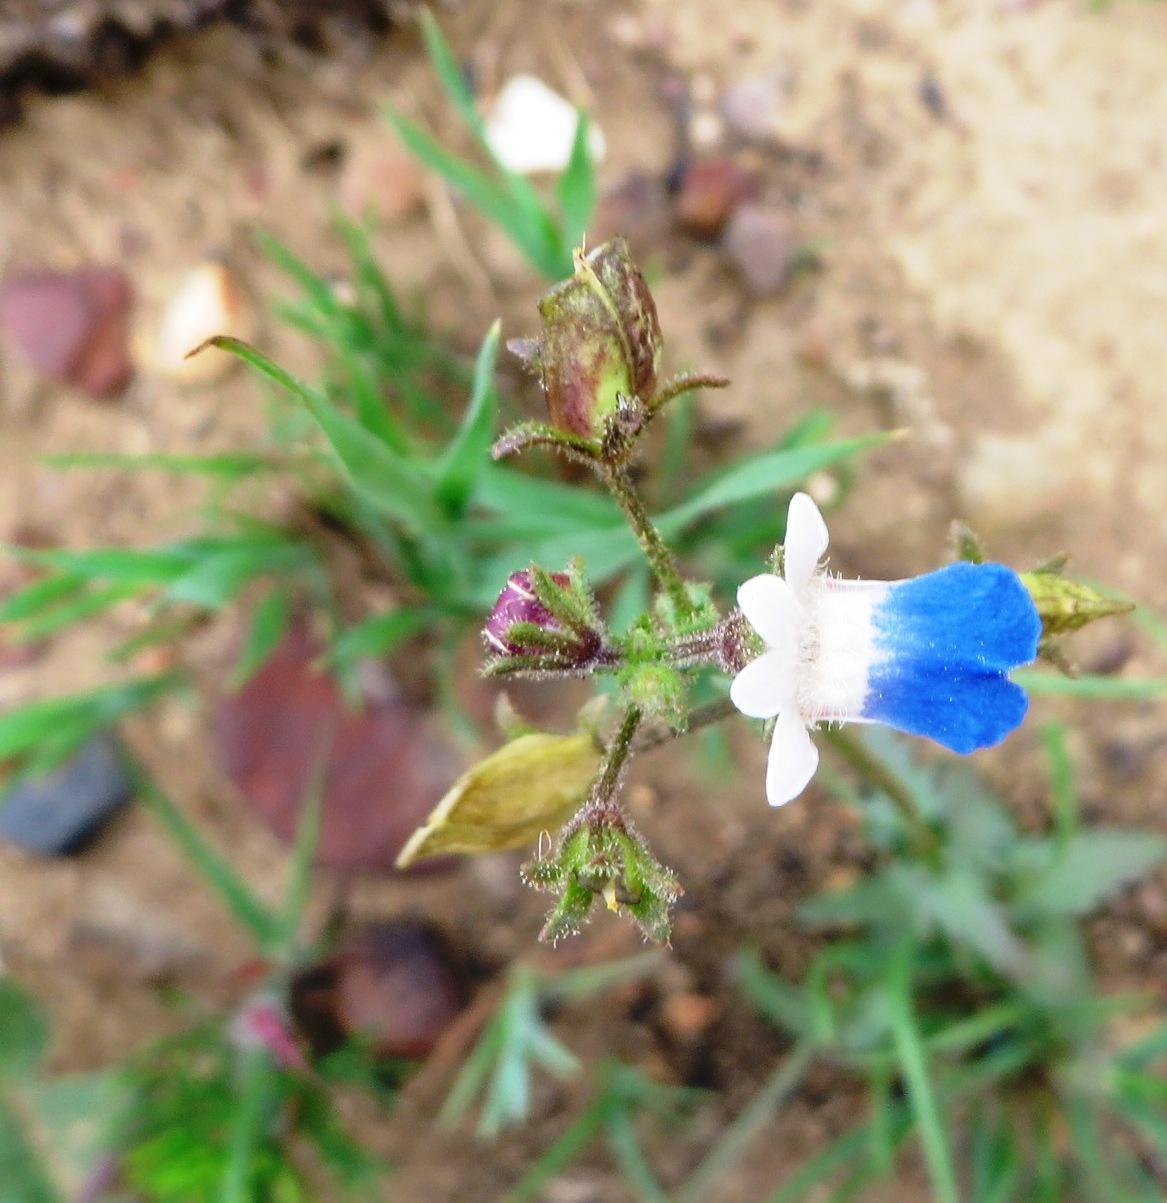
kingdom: Plantae
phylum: Tracheophyta
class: Magnoliopsida
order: Lamiales
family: Scrophulariaceae
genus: Nemesia
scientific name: Nemesia barbata
